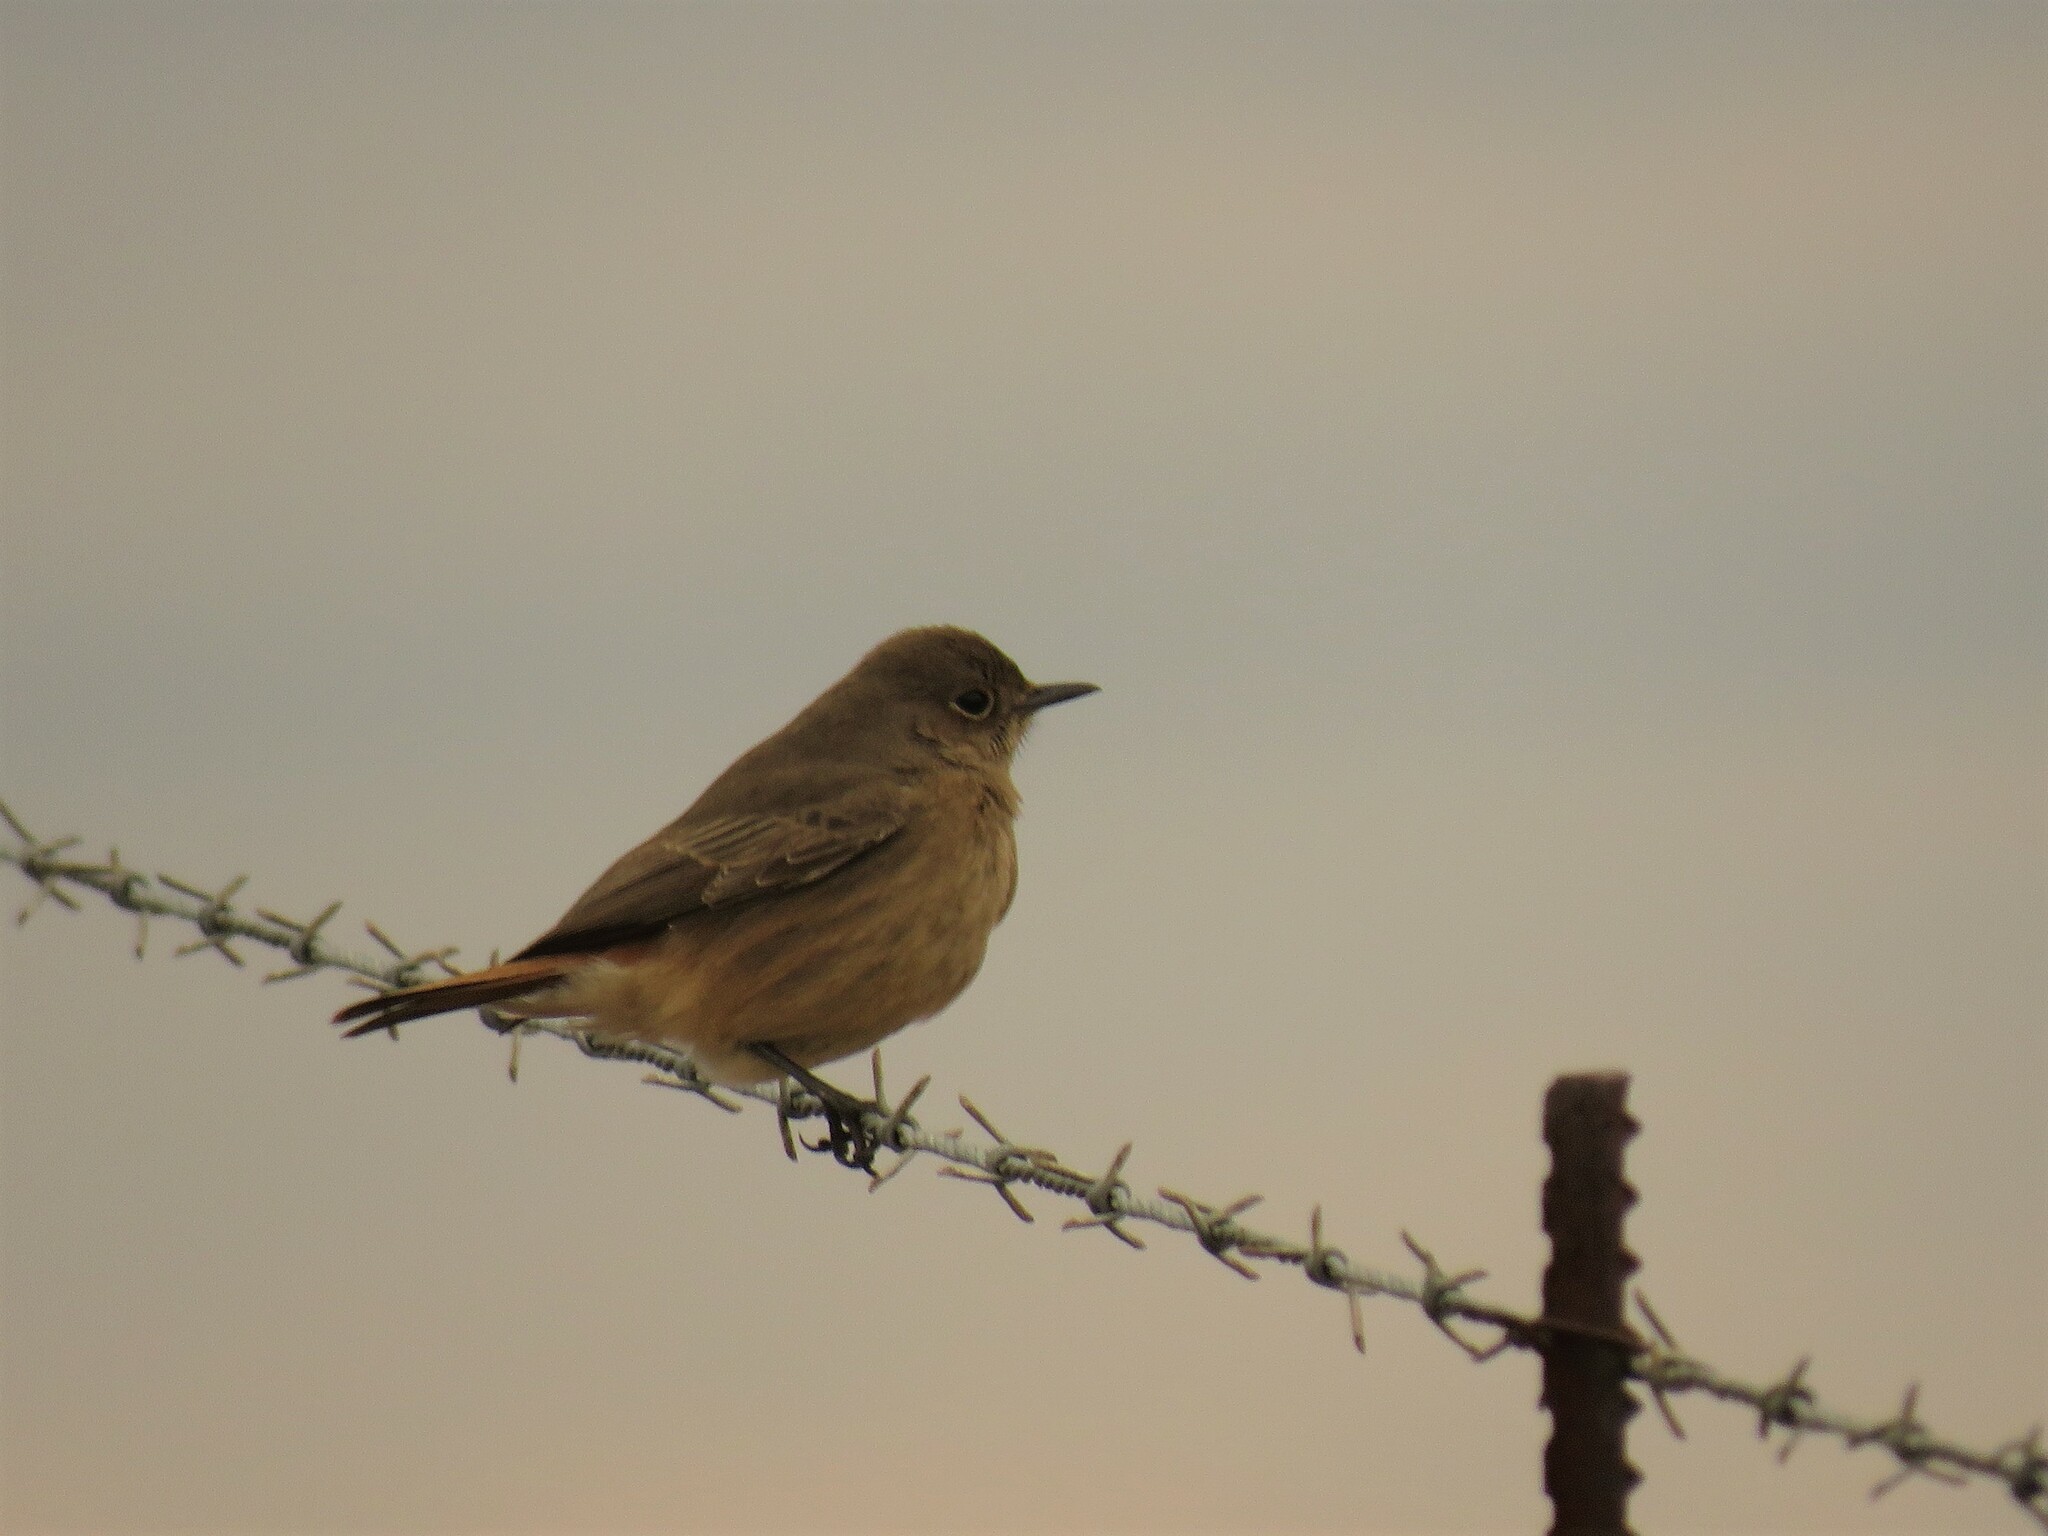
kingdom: Animalia
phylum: Chordata
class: Aves
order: Passeriformes
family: Muscicapidae
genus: Oenanthe
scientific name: Oenanthe familiaris
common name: Familiar chat
